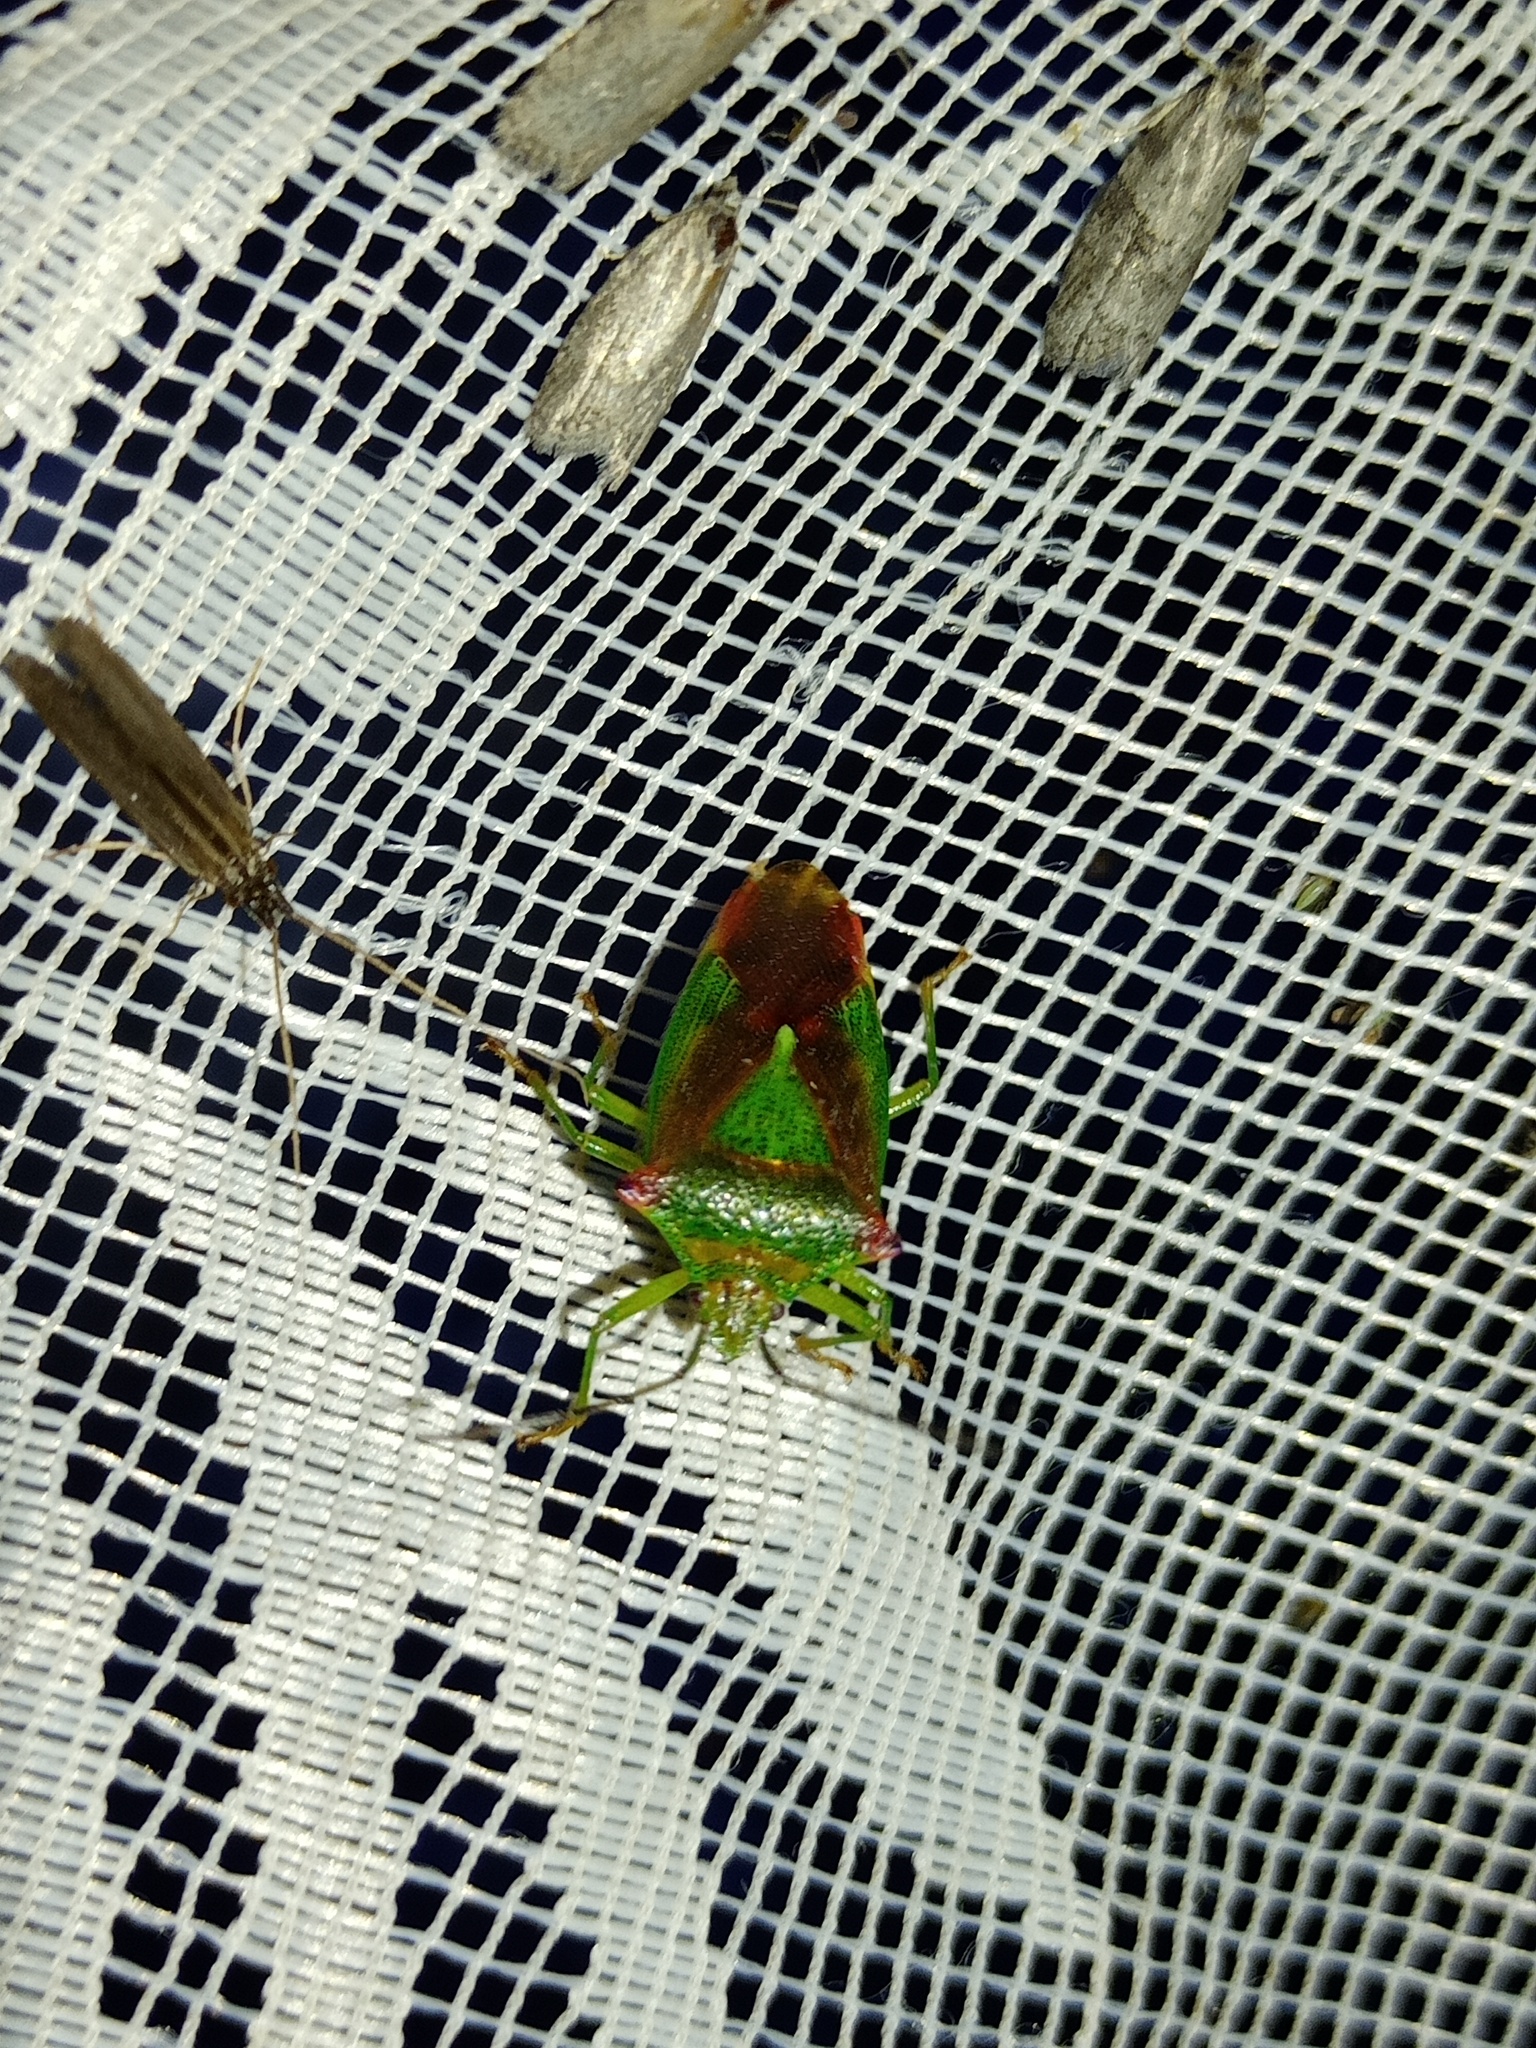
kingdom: Animalia
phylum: Arthropoda
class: Insecta
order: Hemiptera
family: Acanthosomatidae
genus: Acanthosoma
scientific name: Acanthosoma haemorrhoidale
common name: Hawthorn shieldbug
